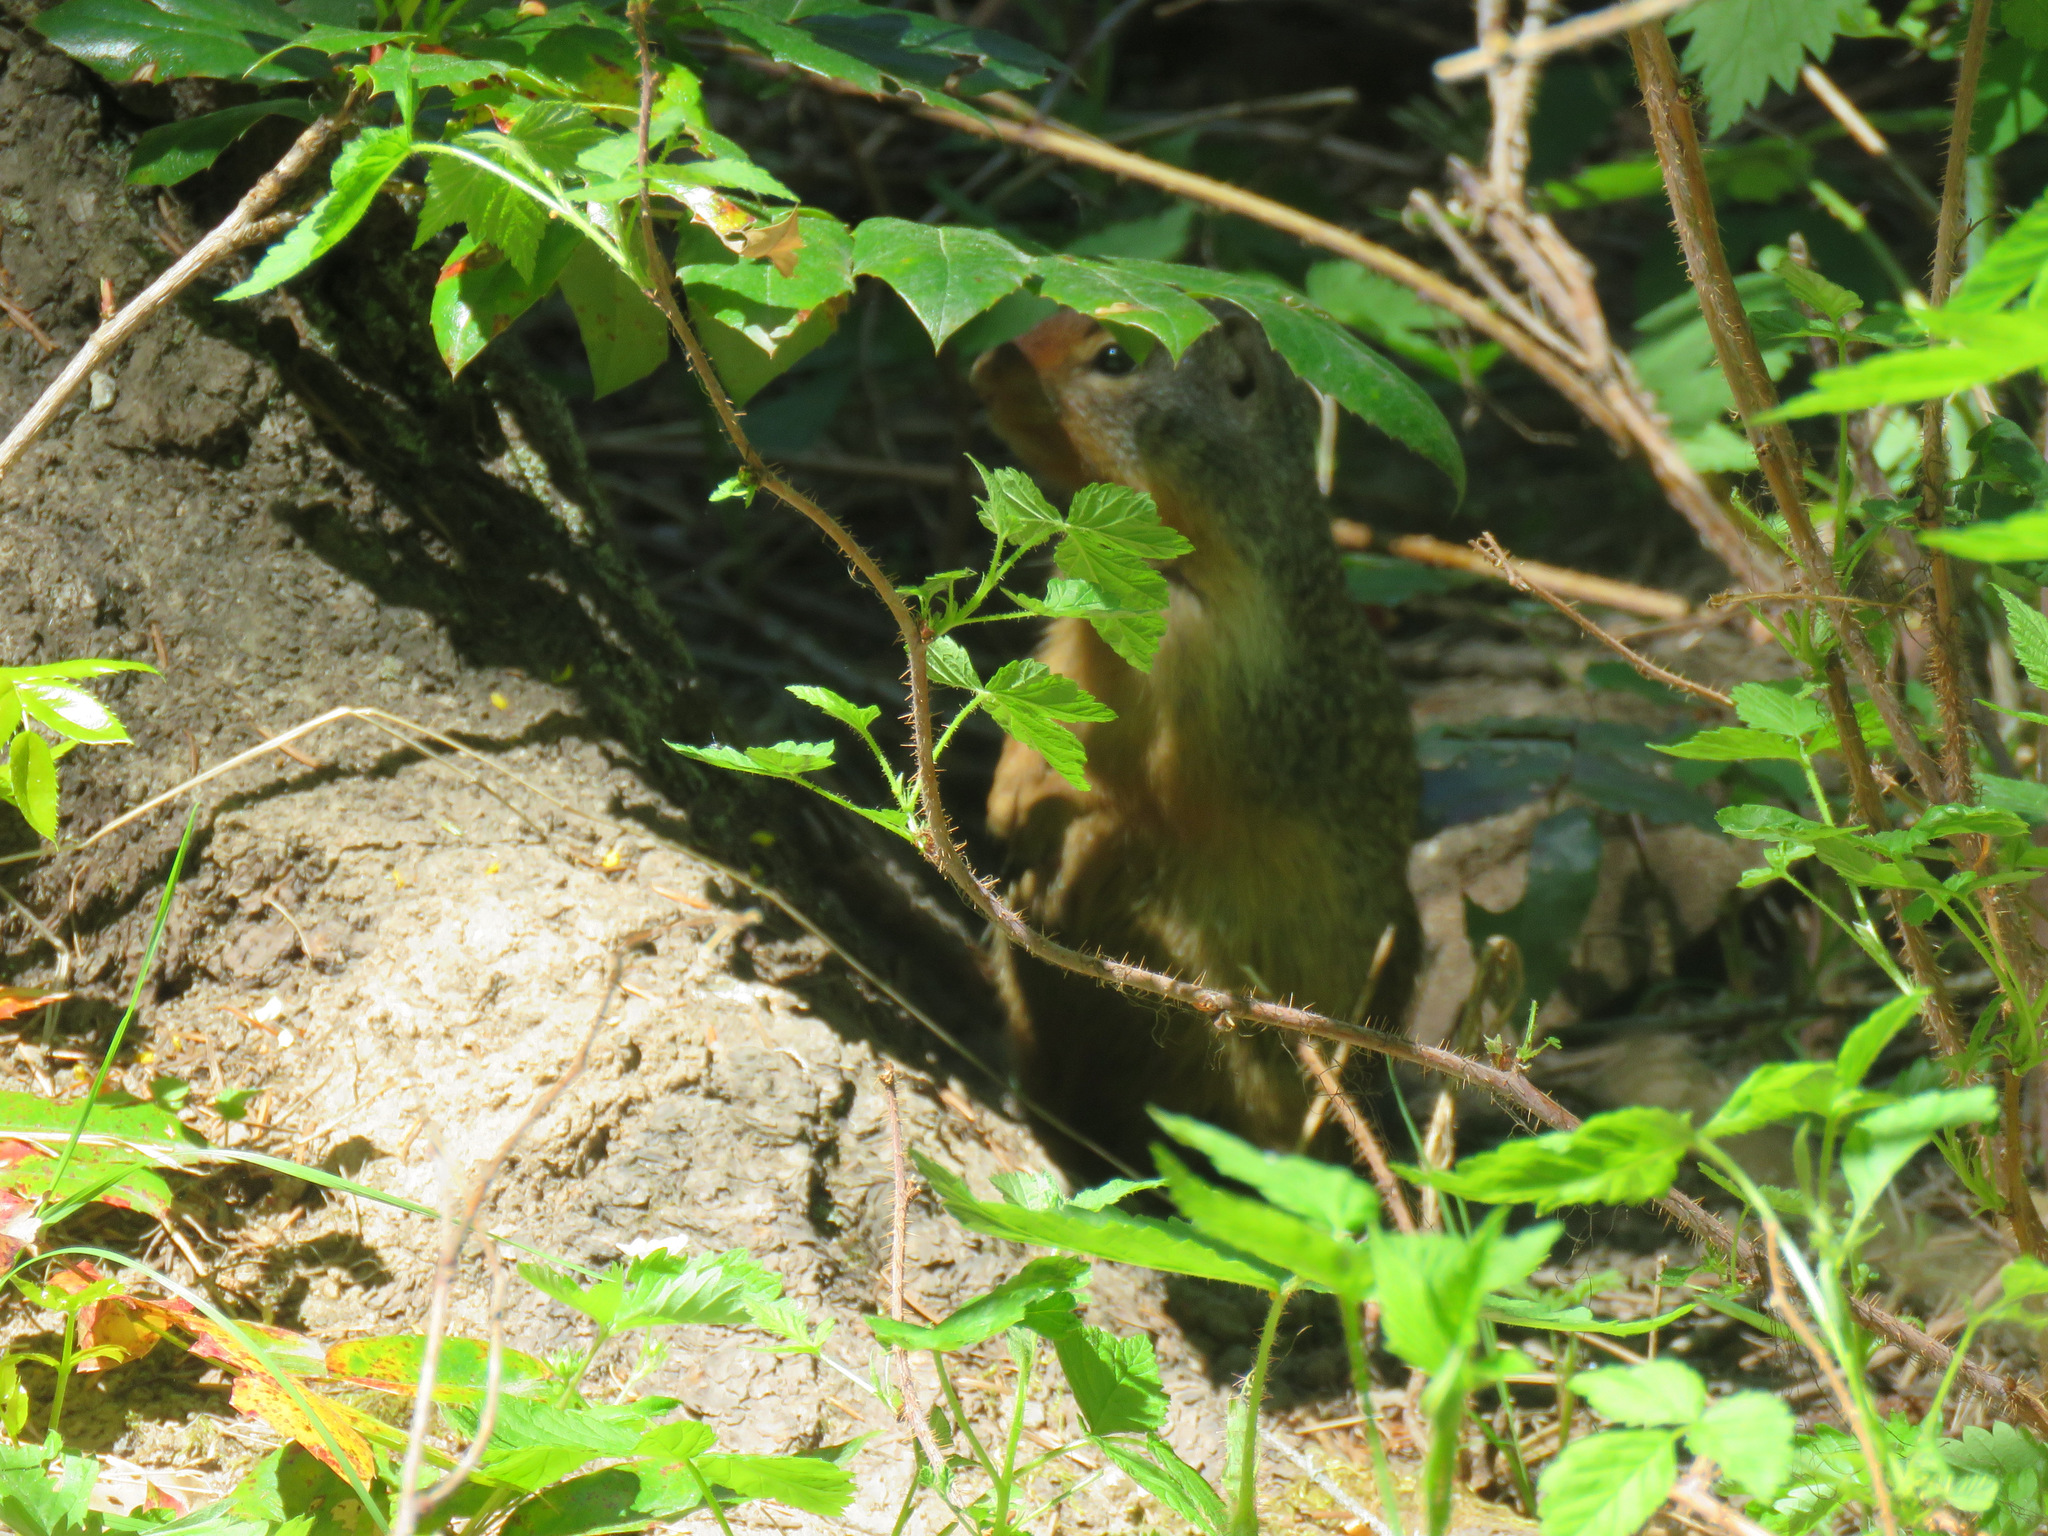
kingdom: Animalia
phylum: Chordata
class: Mammalia
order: Rodentia
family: Sciuridae
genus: Urocitellus
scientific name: Urocitellus columbianus
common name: Columbian ground squirrel
